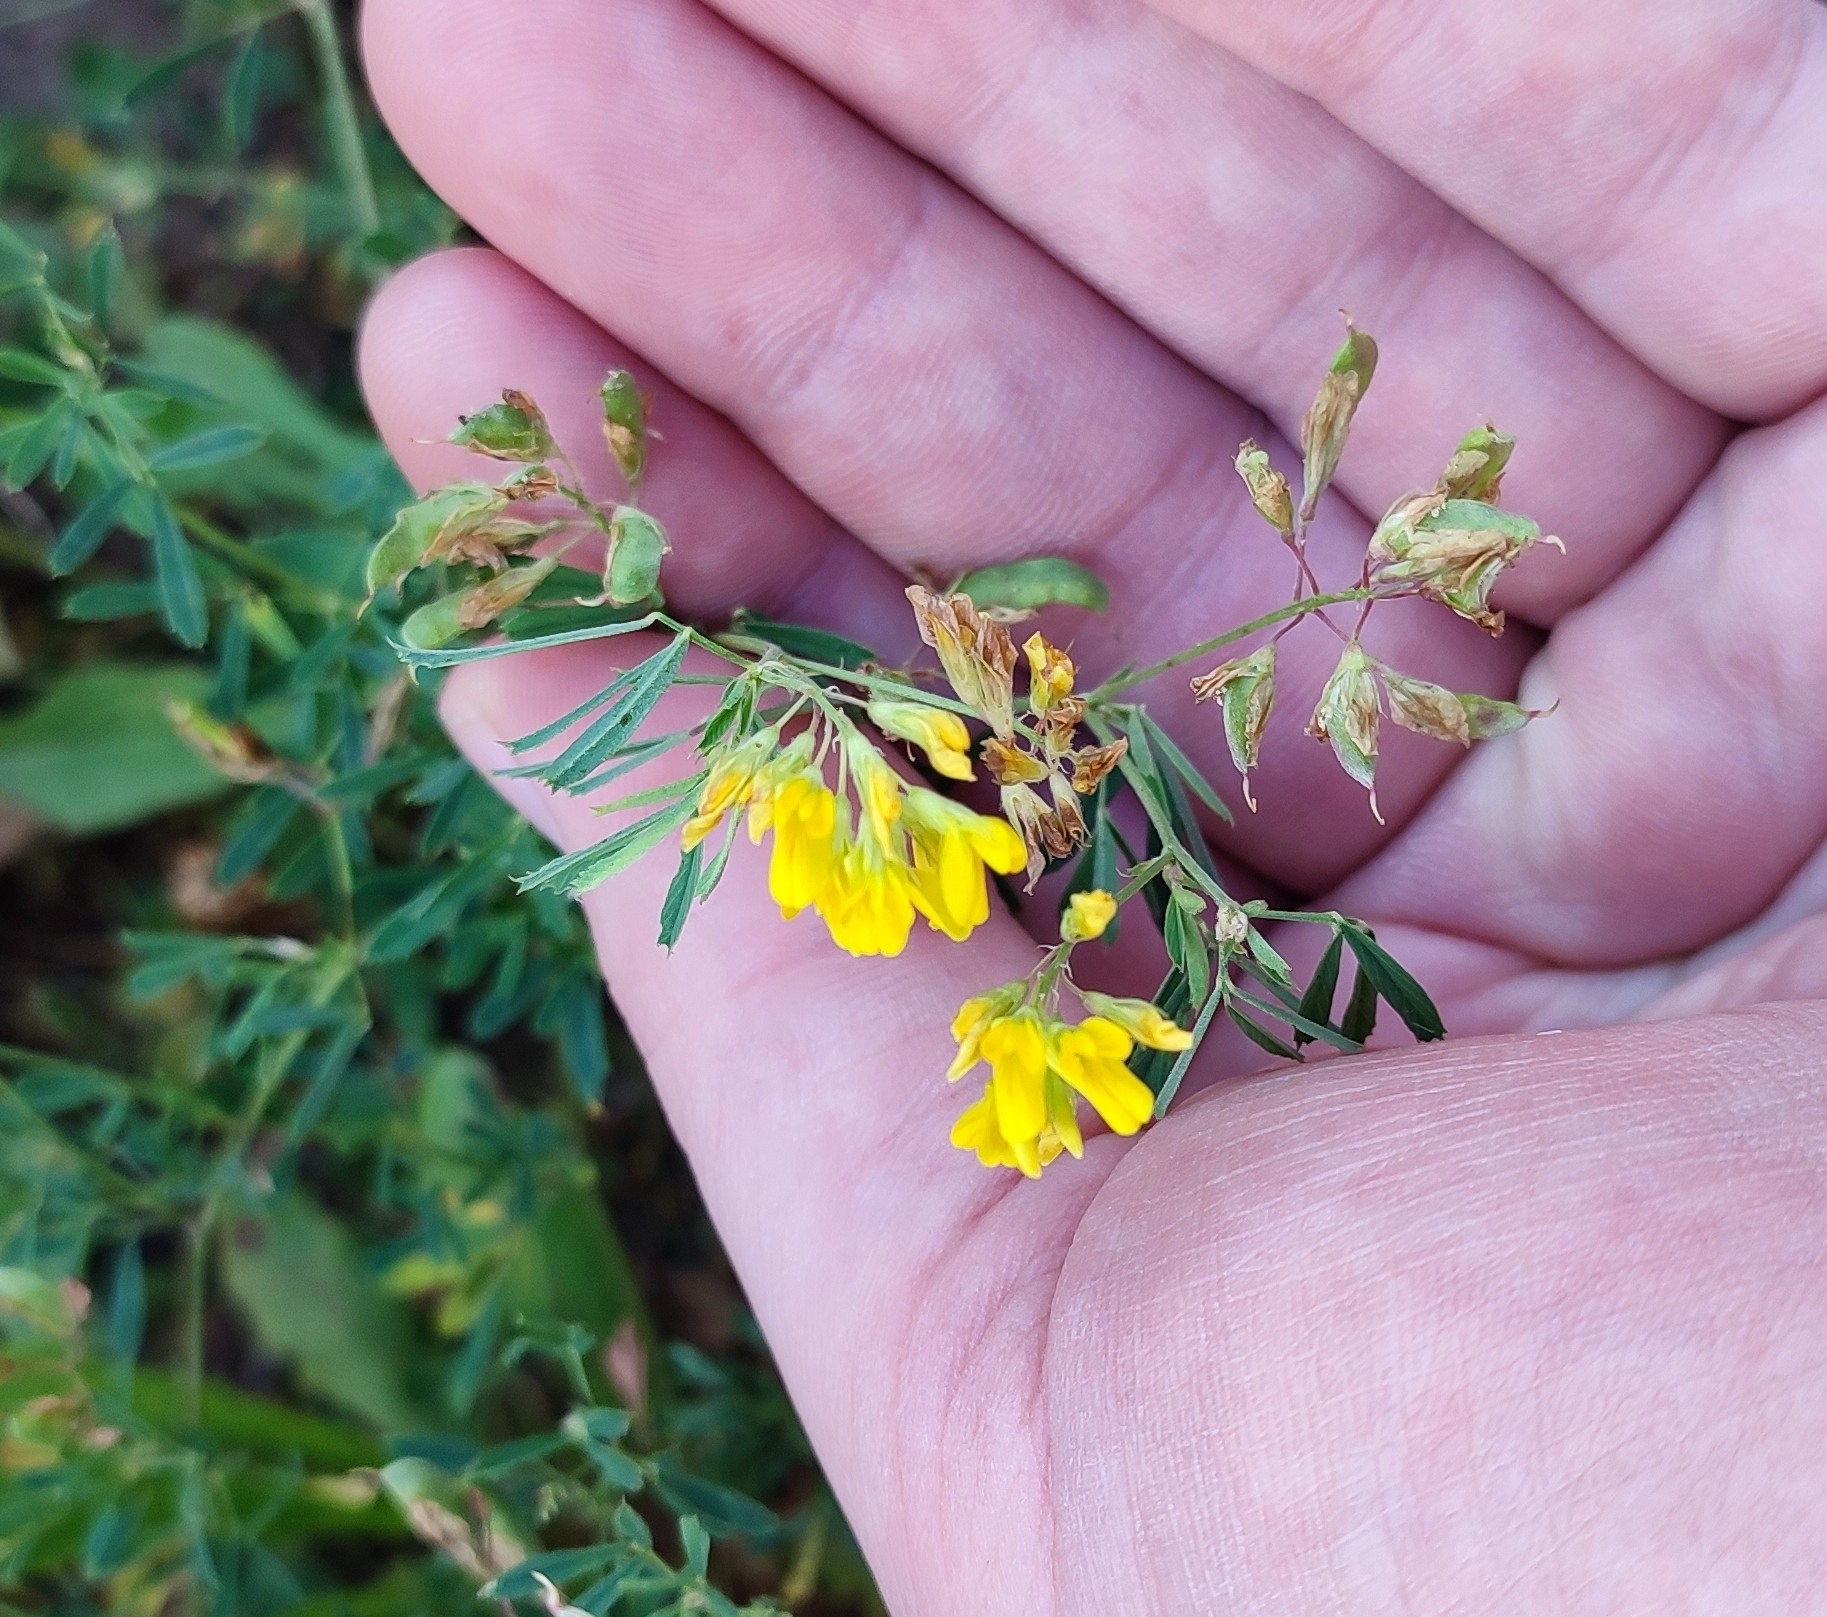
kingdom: Plantae
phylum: Tracheophyta
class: Magnoliopsida
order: Fabales
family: Fabaceae
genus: Medicago
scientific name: Medicago falcata
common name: Sickle medick
